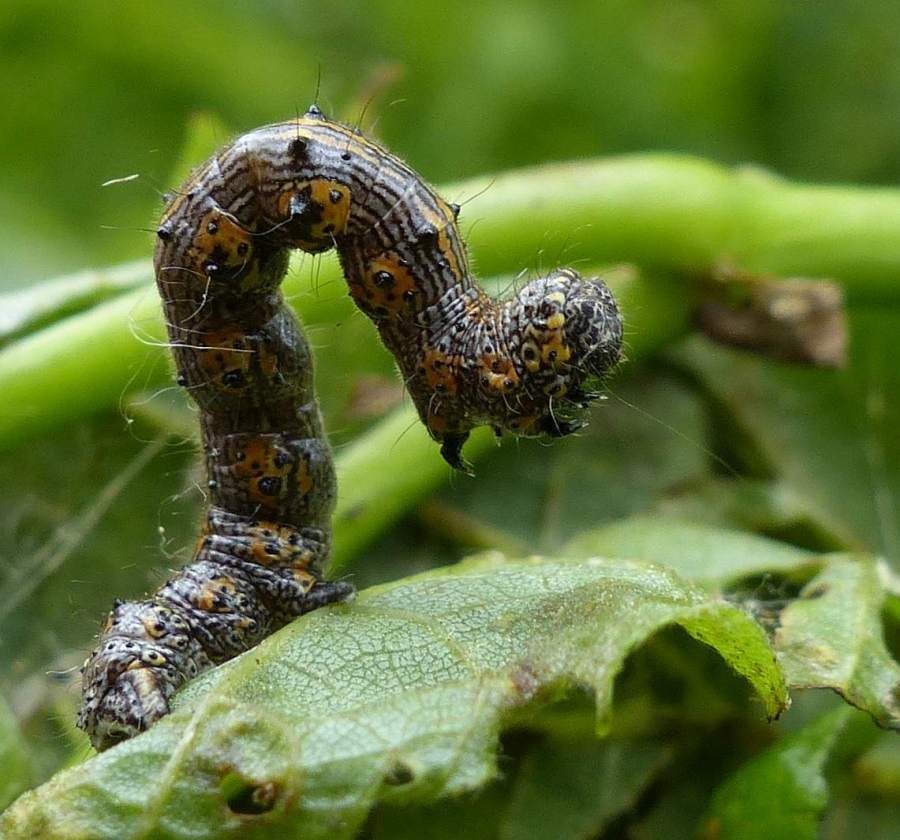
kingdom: Animalia
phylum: Arthropoda
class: Insecta
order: Lepidoptera
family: Geometridae
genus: Phigalia
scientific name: Phigalia titea
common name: Spiny looper
